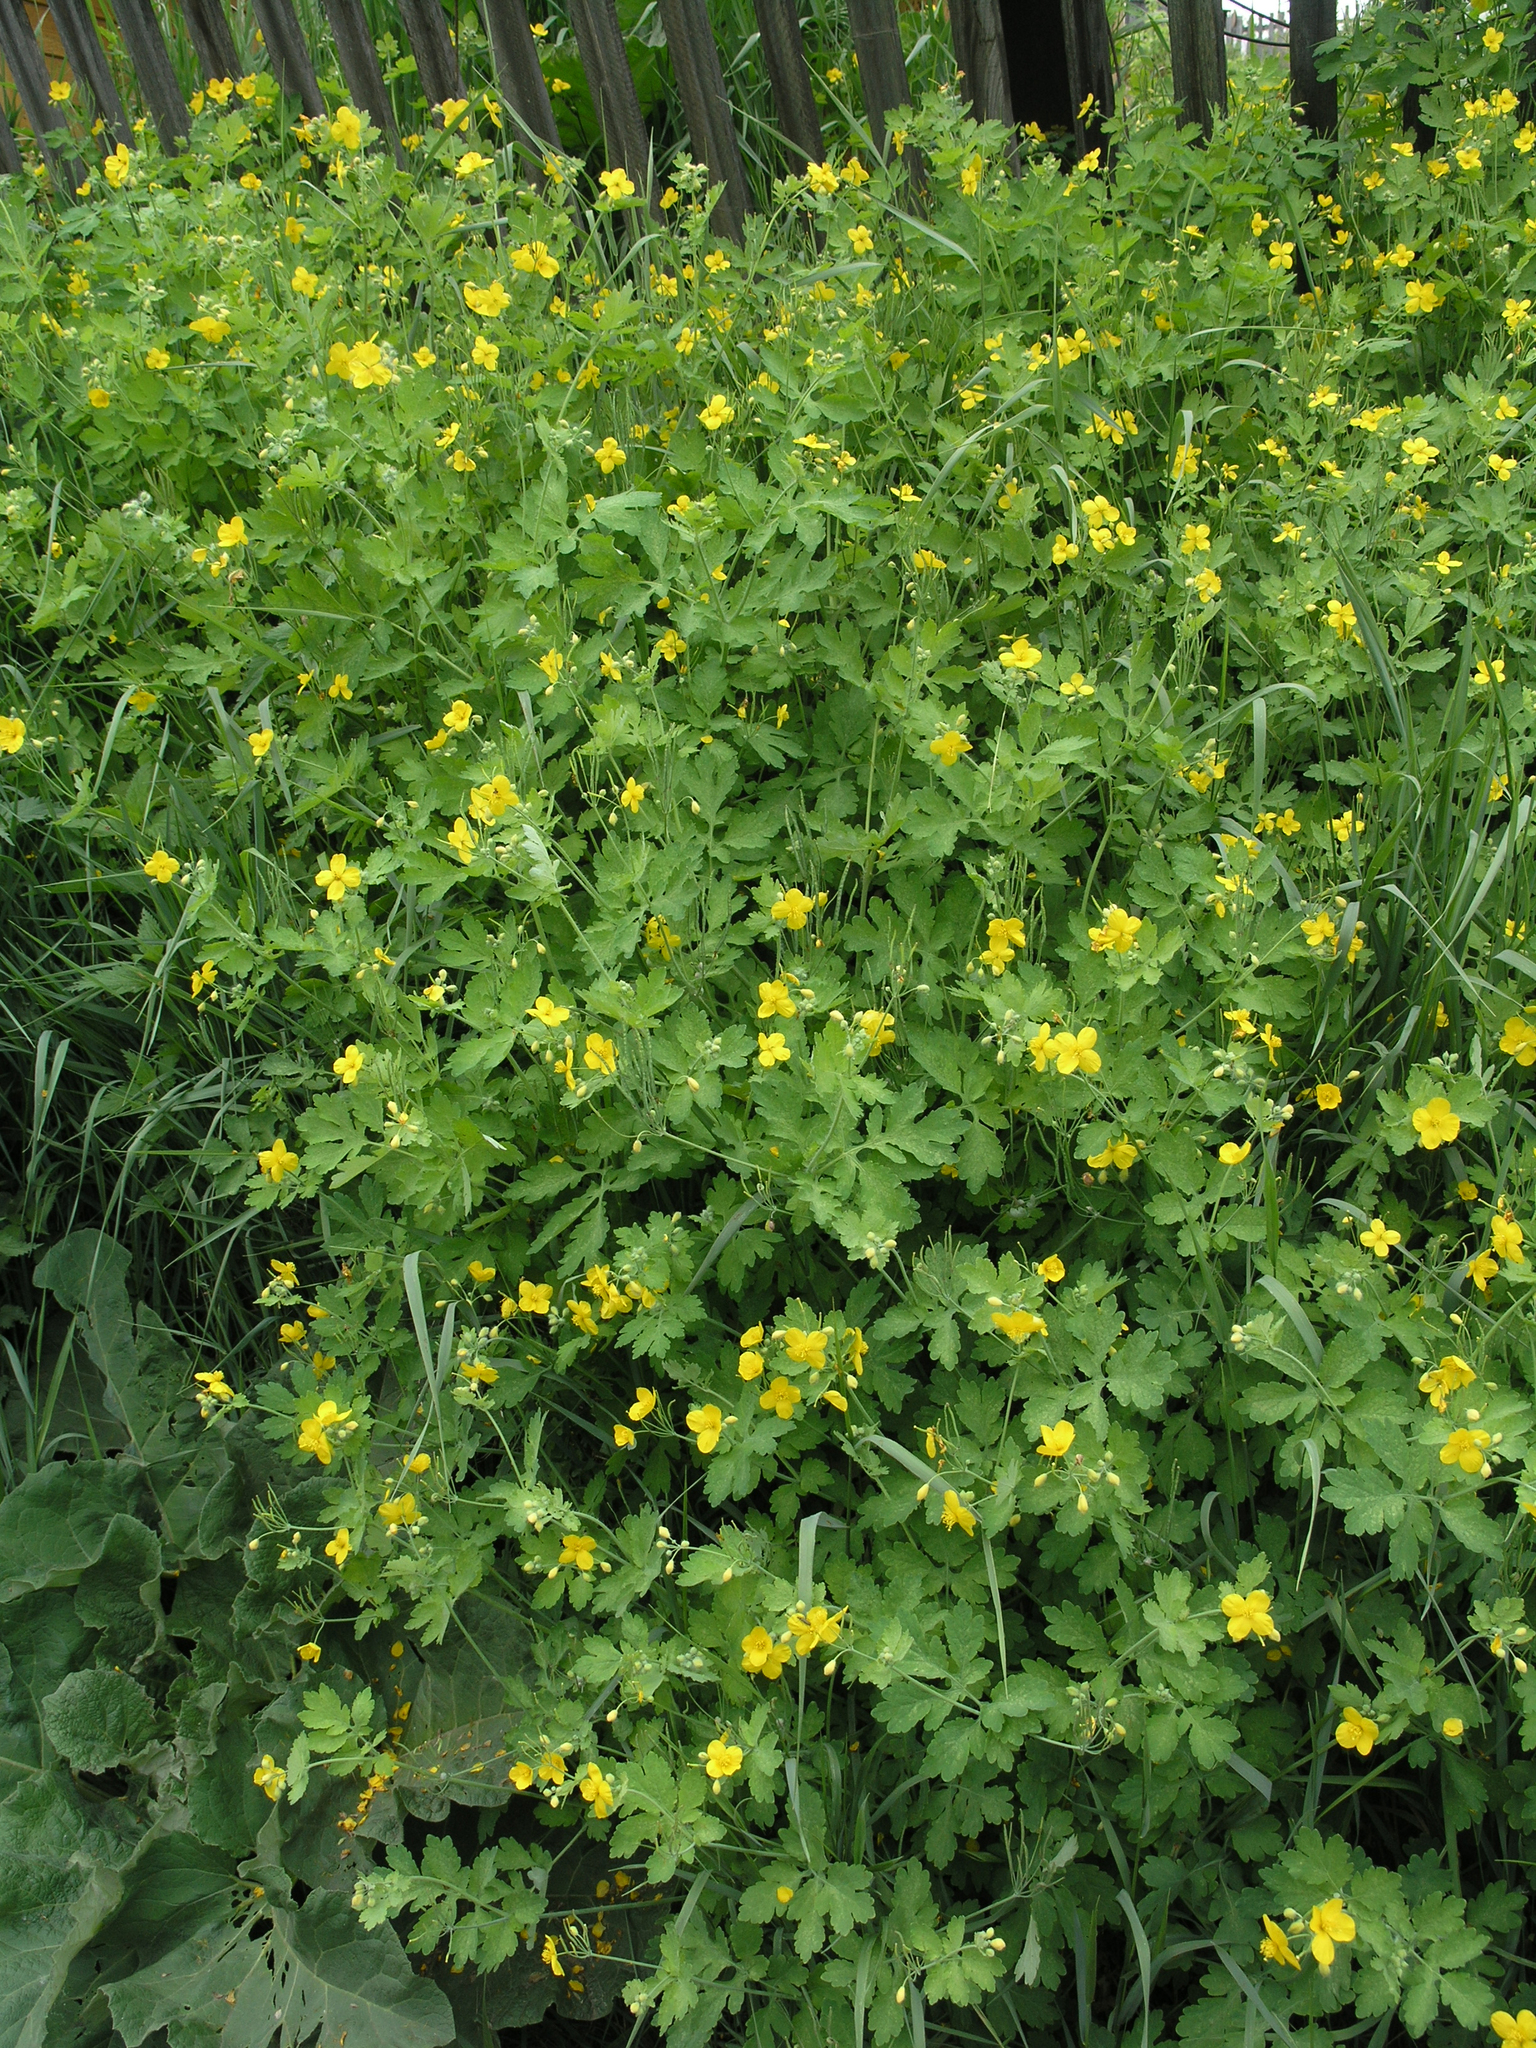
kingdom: Plantae
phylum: Tracheophyta
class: Magnoliopsida
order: Ranunculales
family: Papaveraceae
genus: Chelidonium
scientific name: Chelidonium majus
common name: Greater celandine
